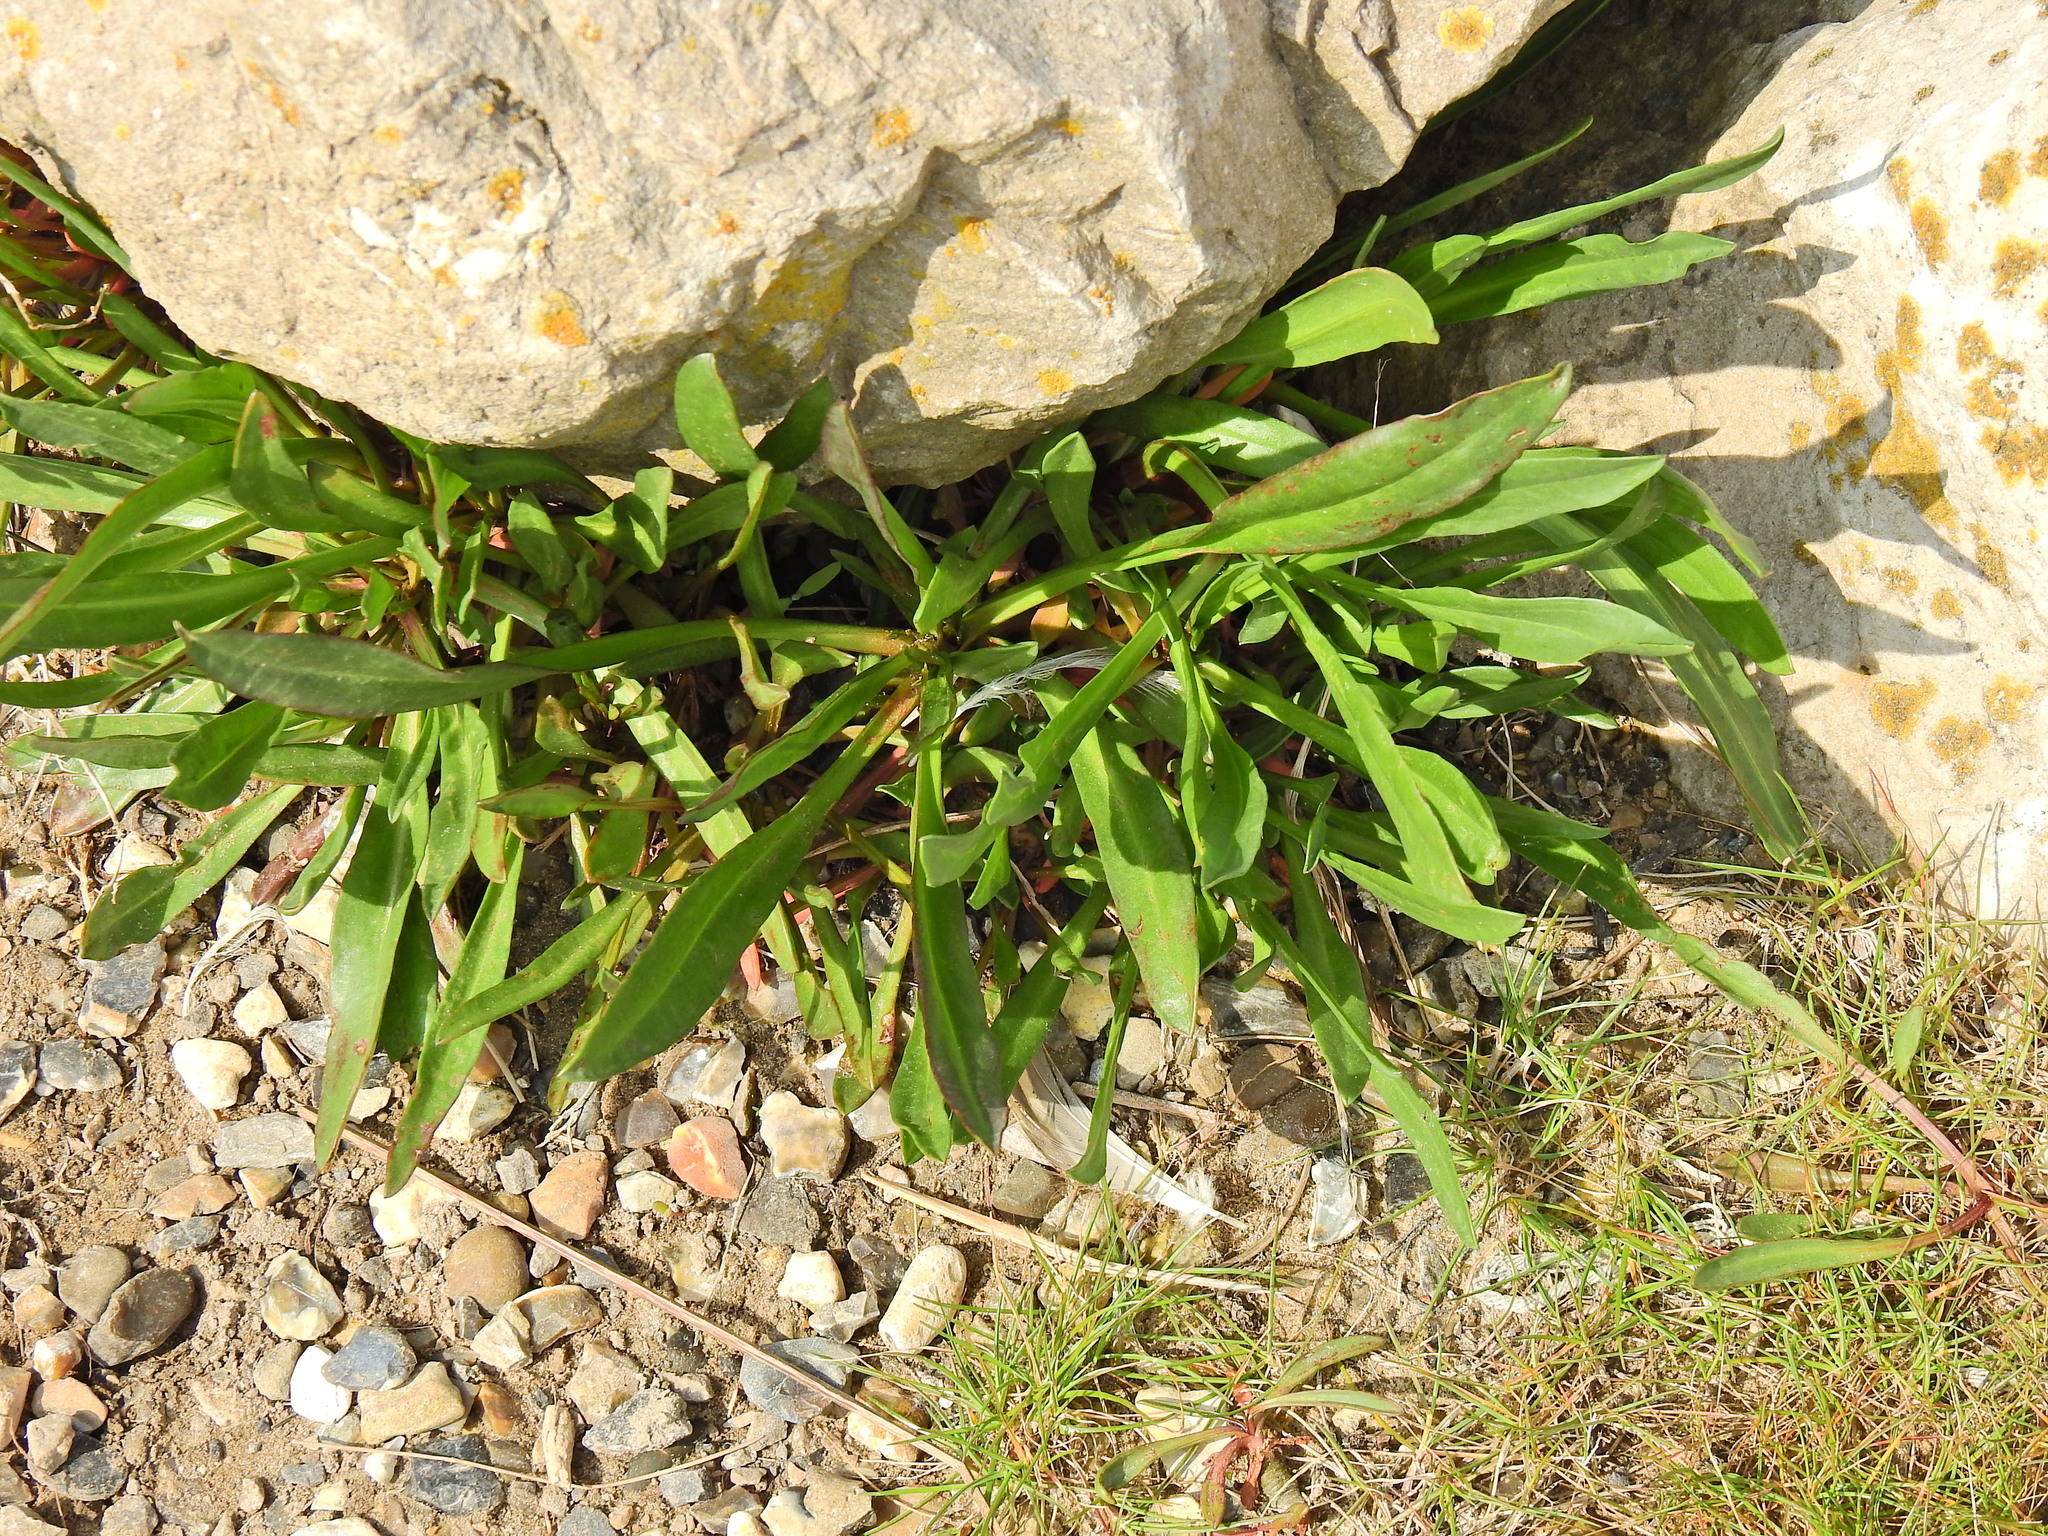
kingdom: Plantae
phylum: Tracheophyta
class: Magnoliopsida
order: Asterales
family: Asteraceae
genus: Tripolium
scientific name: Tripolium pannonicum
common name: Sea aster
